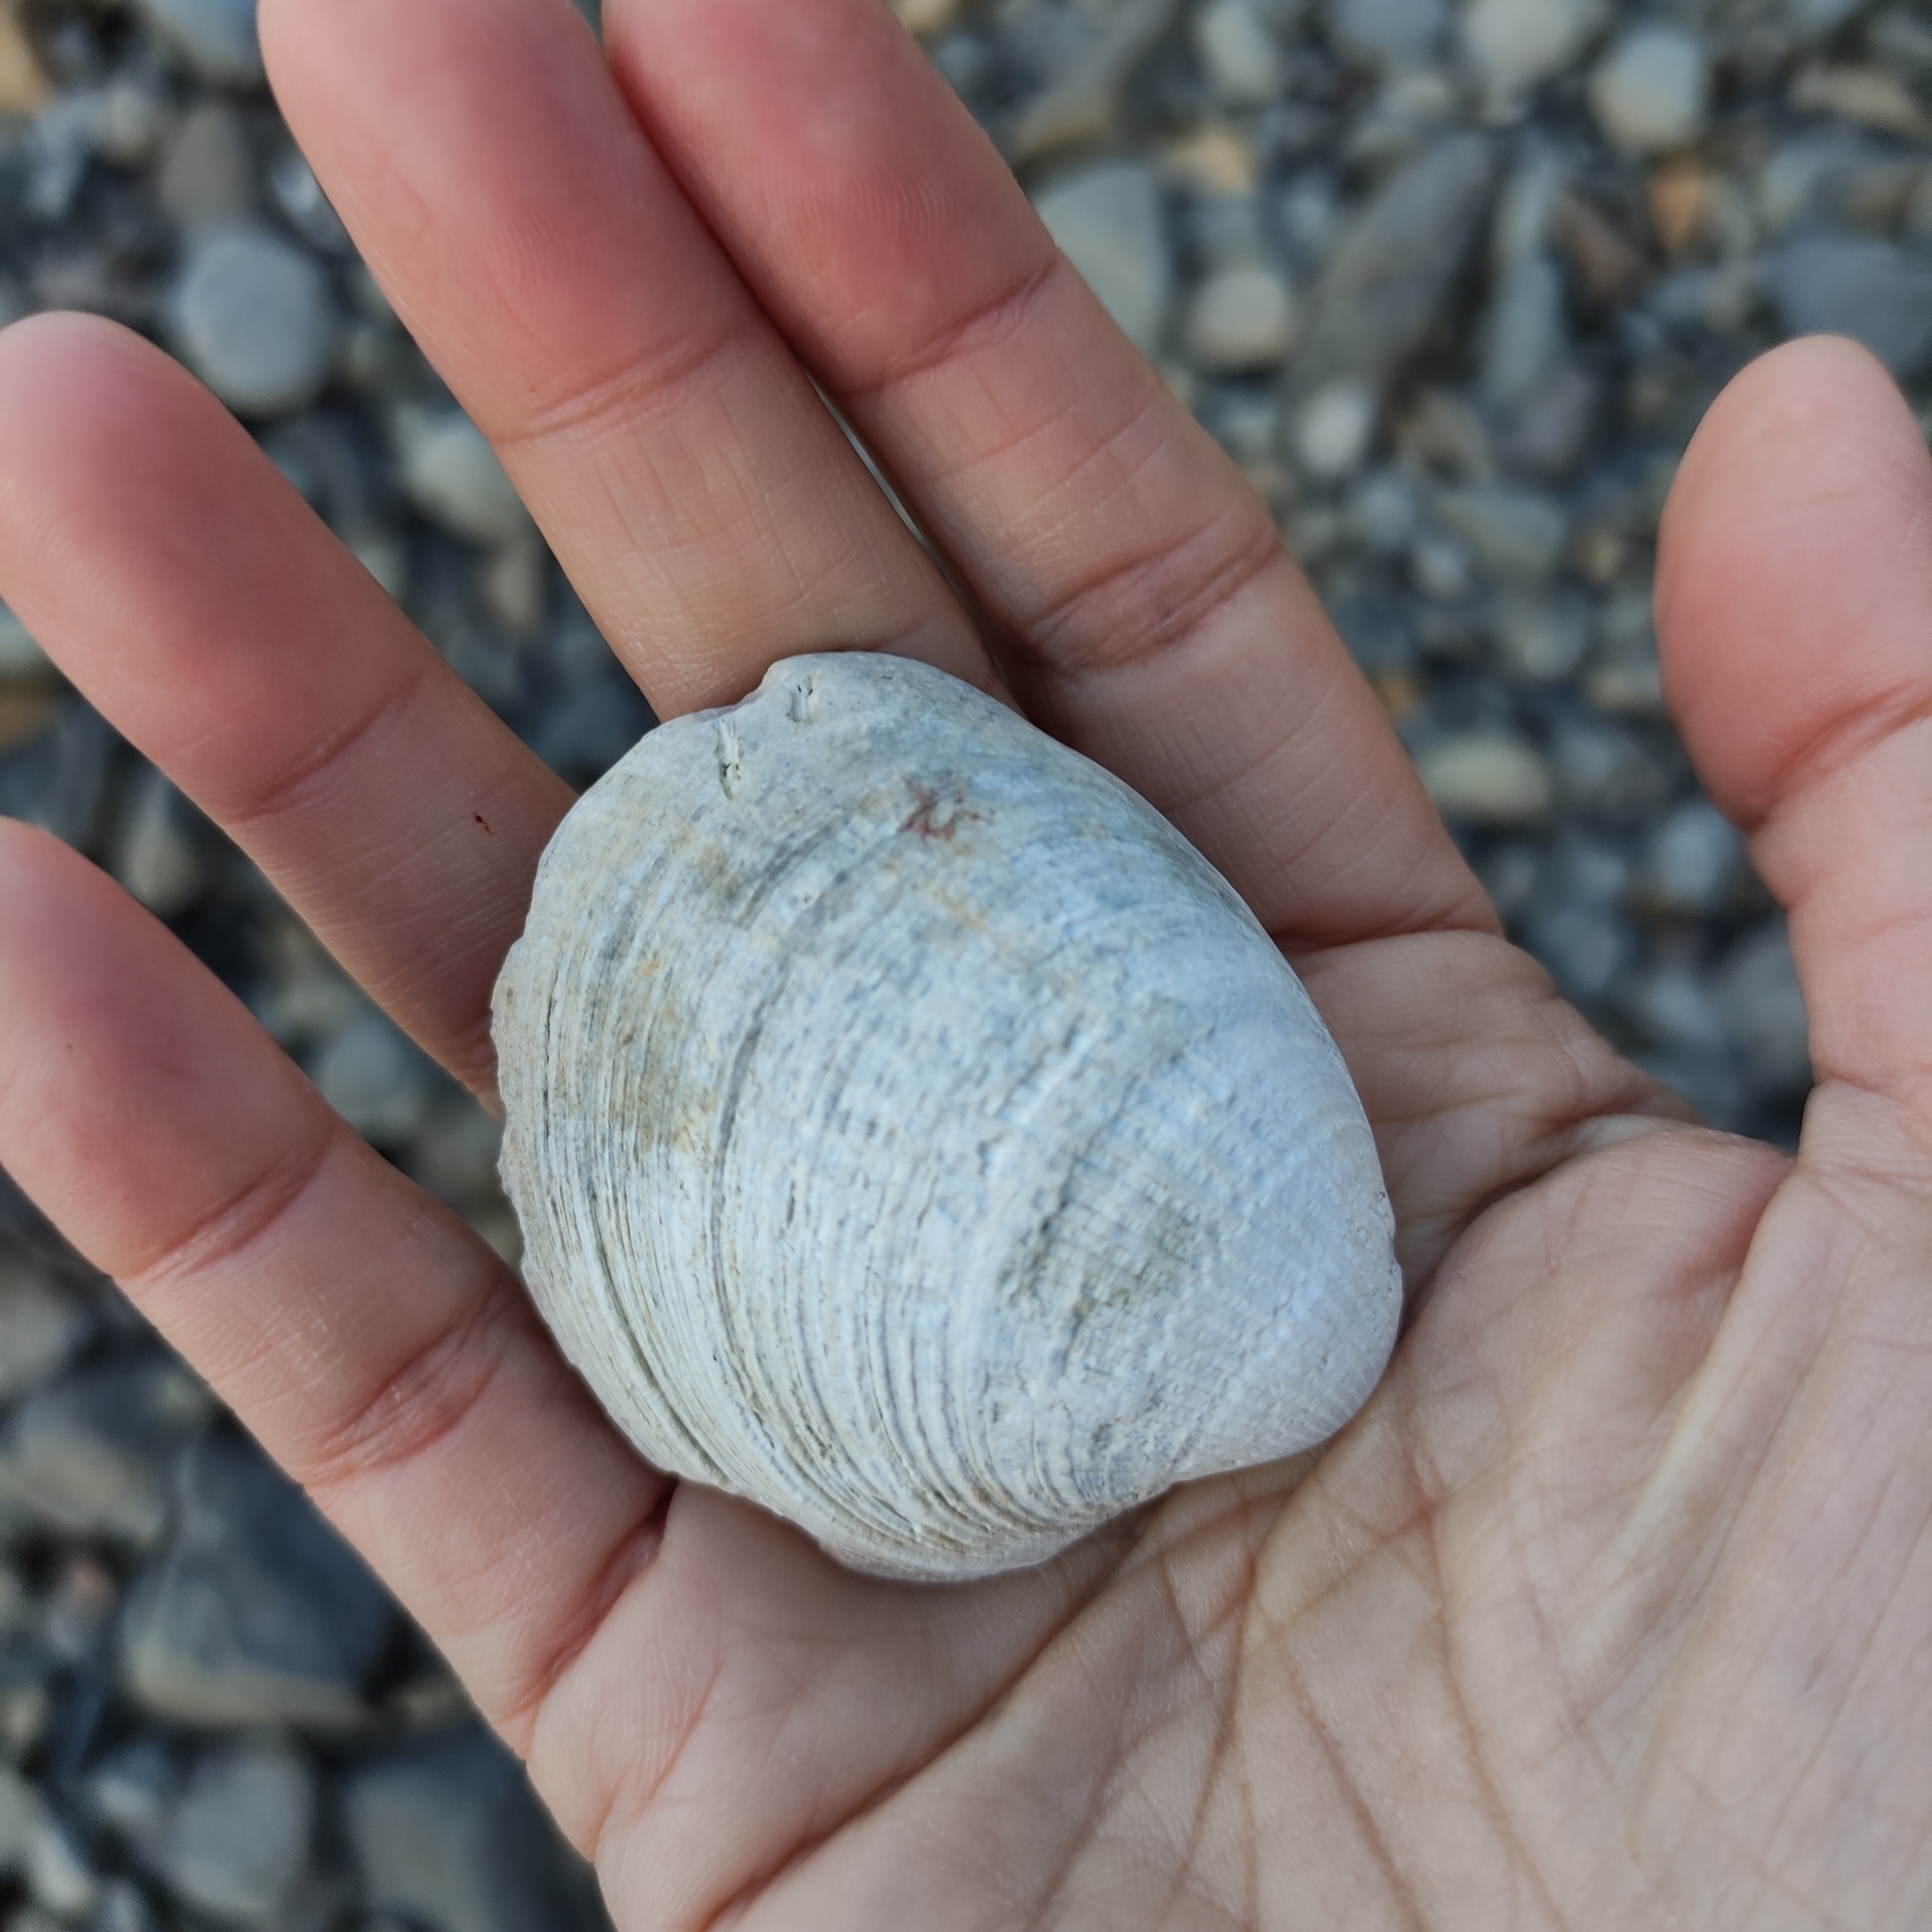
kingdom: Animalia
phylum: Mollusca
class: Bivalvia
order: Venerida
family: Veneridae
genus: Austrovenus
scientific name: Austrovenus stutchburyi
